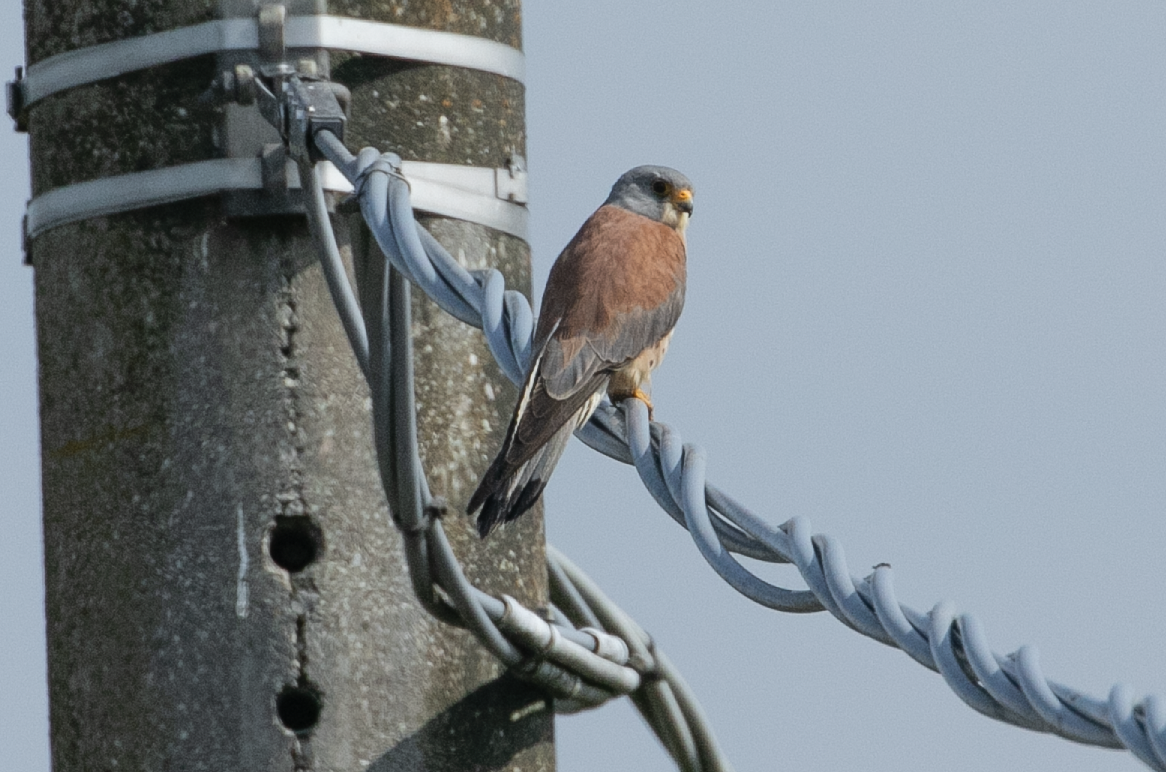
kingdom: Animalia
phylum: Chordata
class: Aves
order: Falconiformes
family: Falconidae
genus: Falco
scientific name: Falco naumanni
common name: Lesser kestrel
